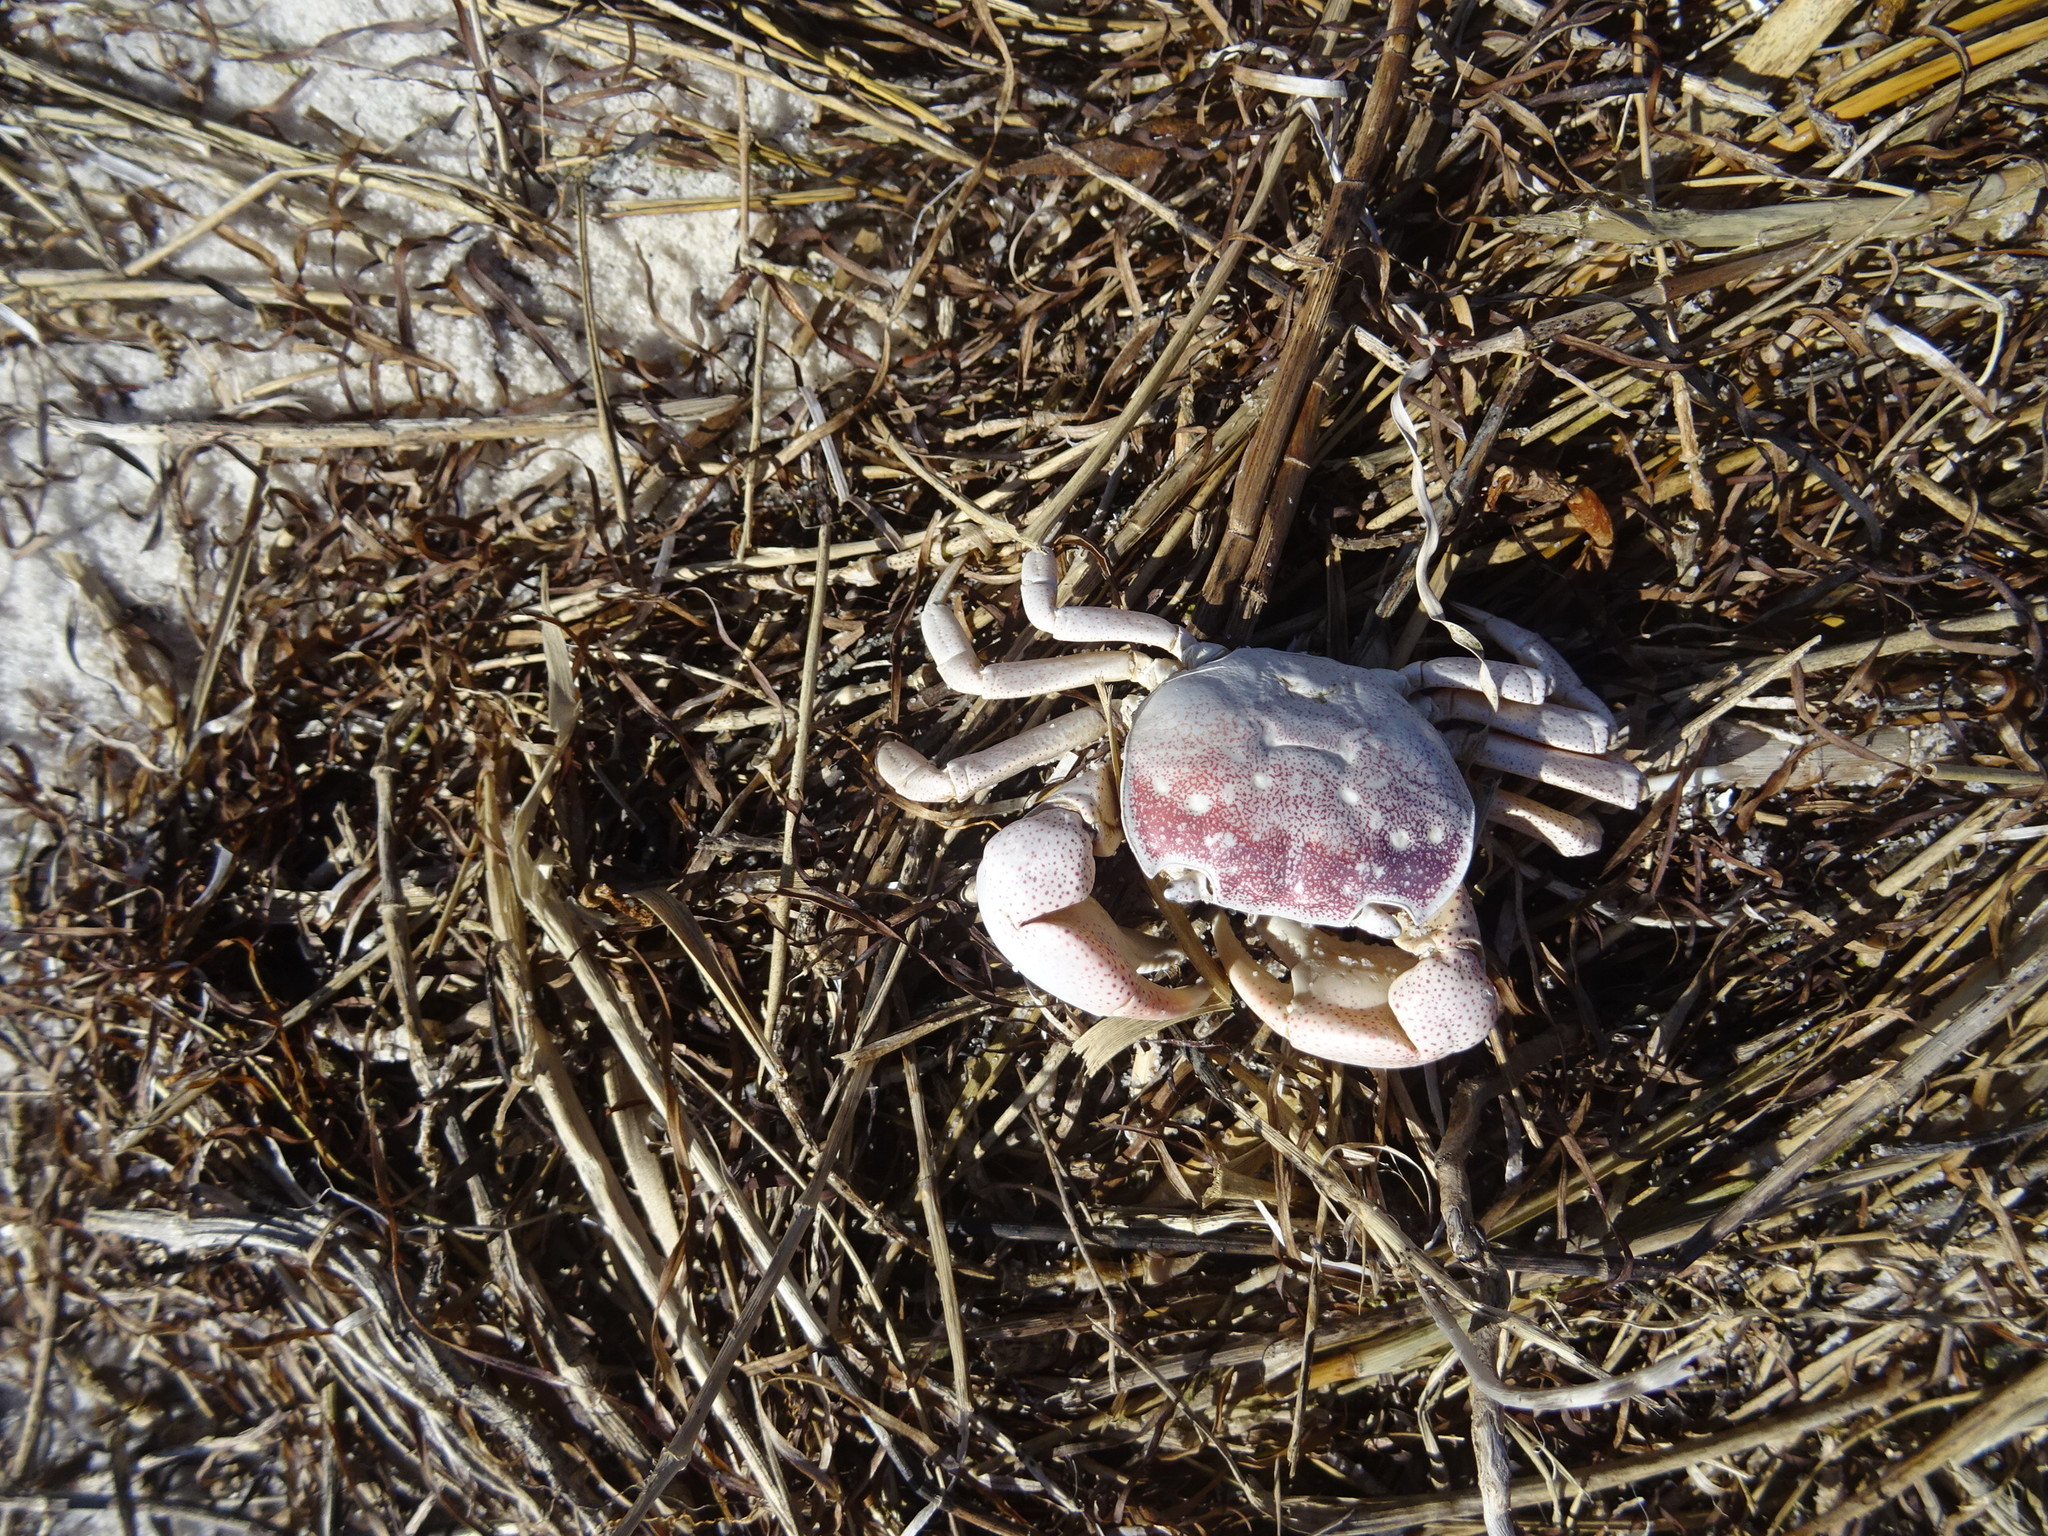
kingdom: Animalia
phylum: Arthropoda
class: Malacostraca
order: Decapoda
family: Varunidae
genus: Cyclograpsus
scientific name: Cyclograpsus punctatus
